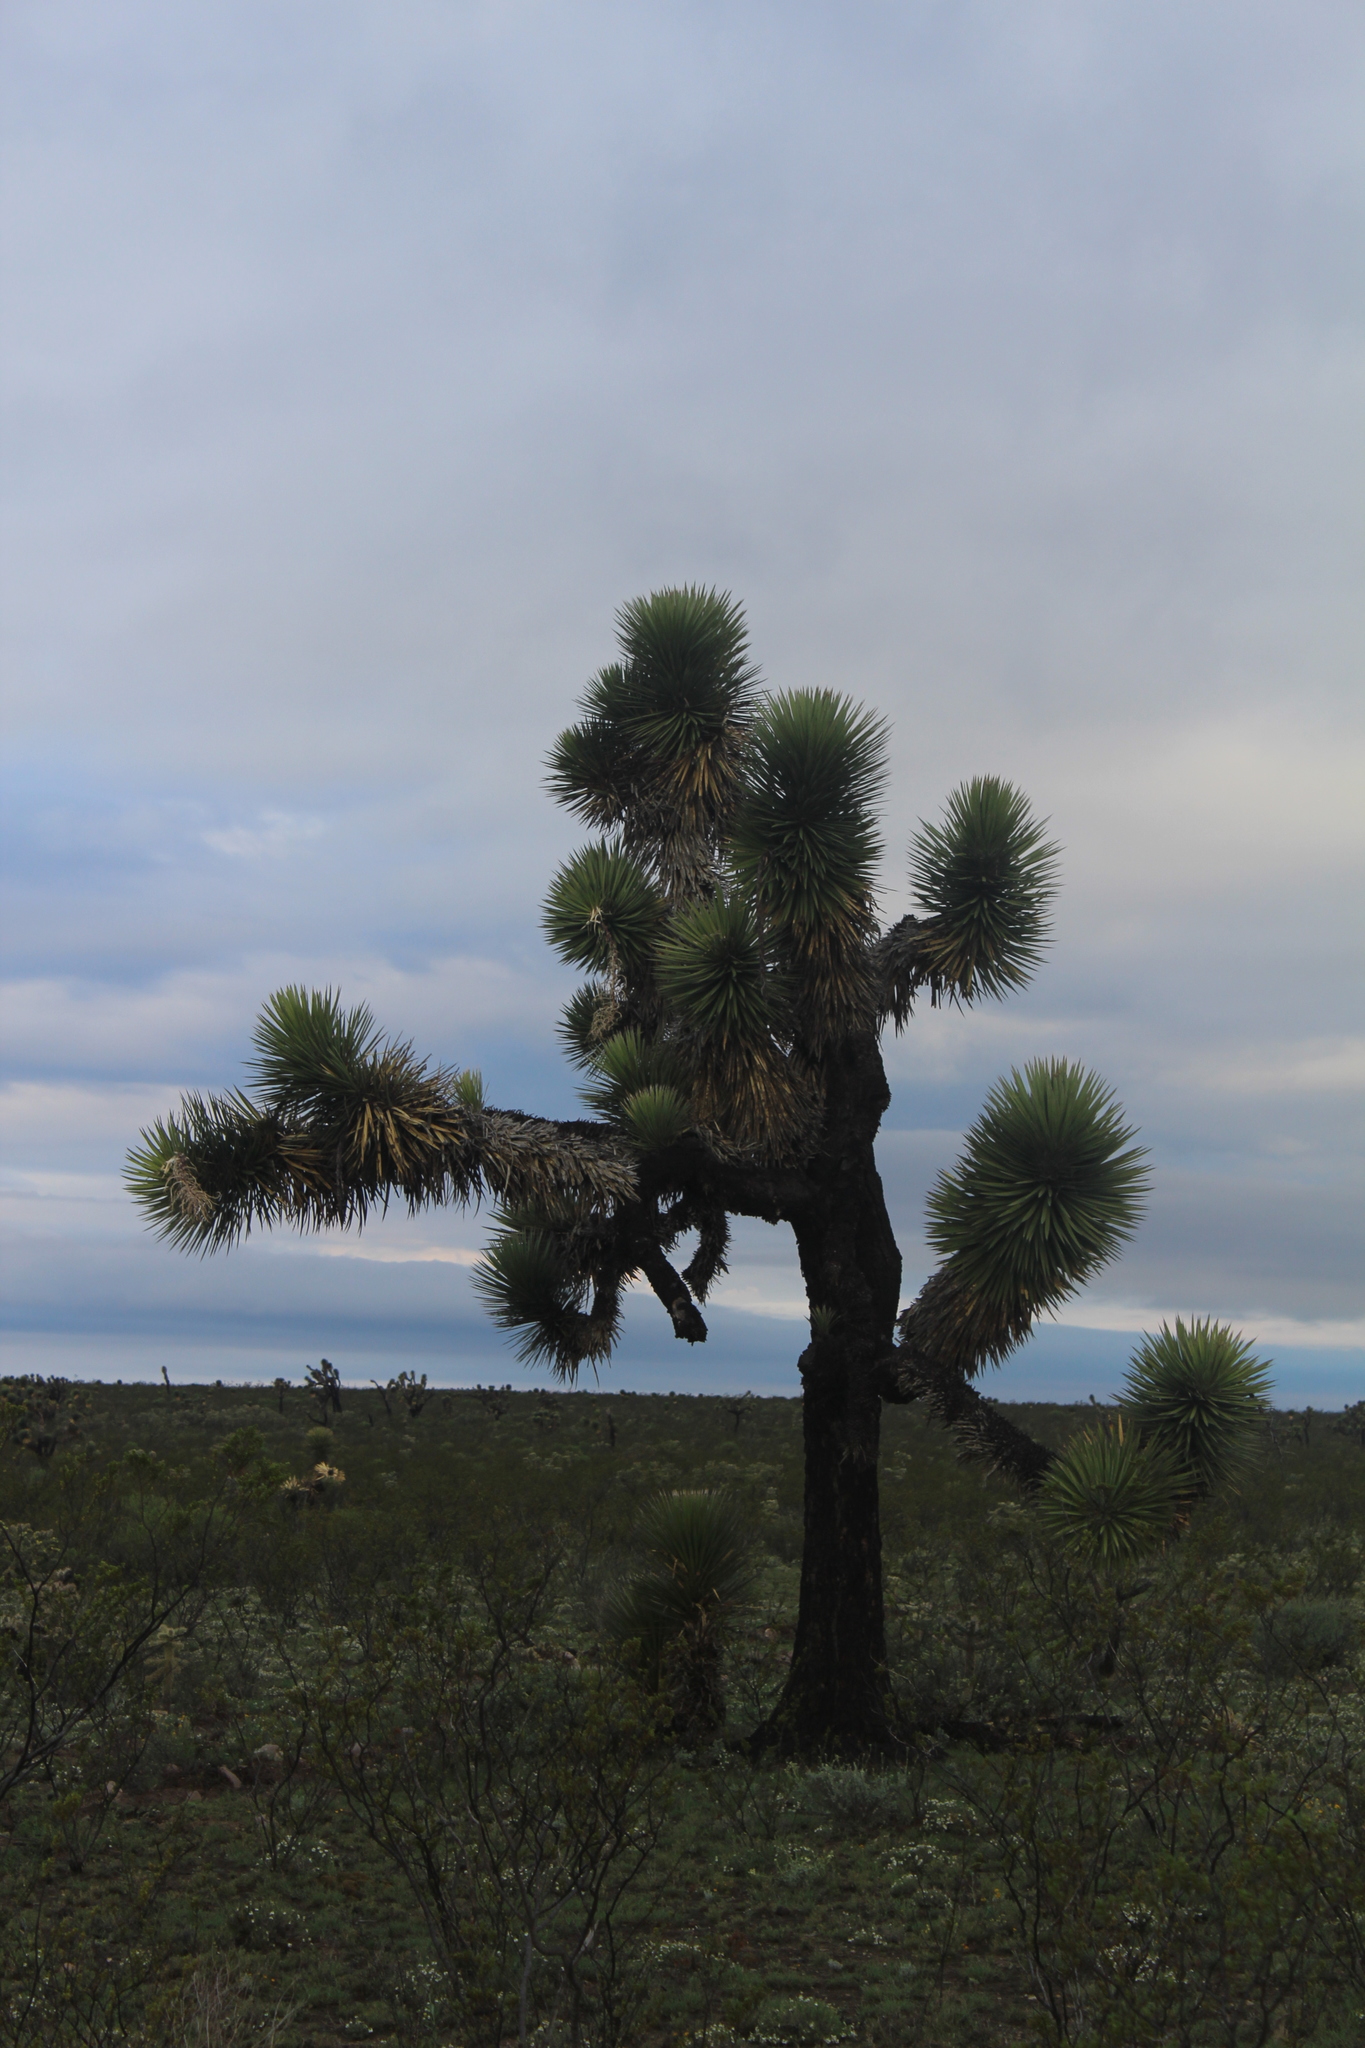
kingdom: Plantae
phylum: Tracheophyta
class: Liliopsida
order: Asparagales
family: Asparagaceae
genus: Yucca
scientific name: Yucca decipiens
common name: Chinese palm
